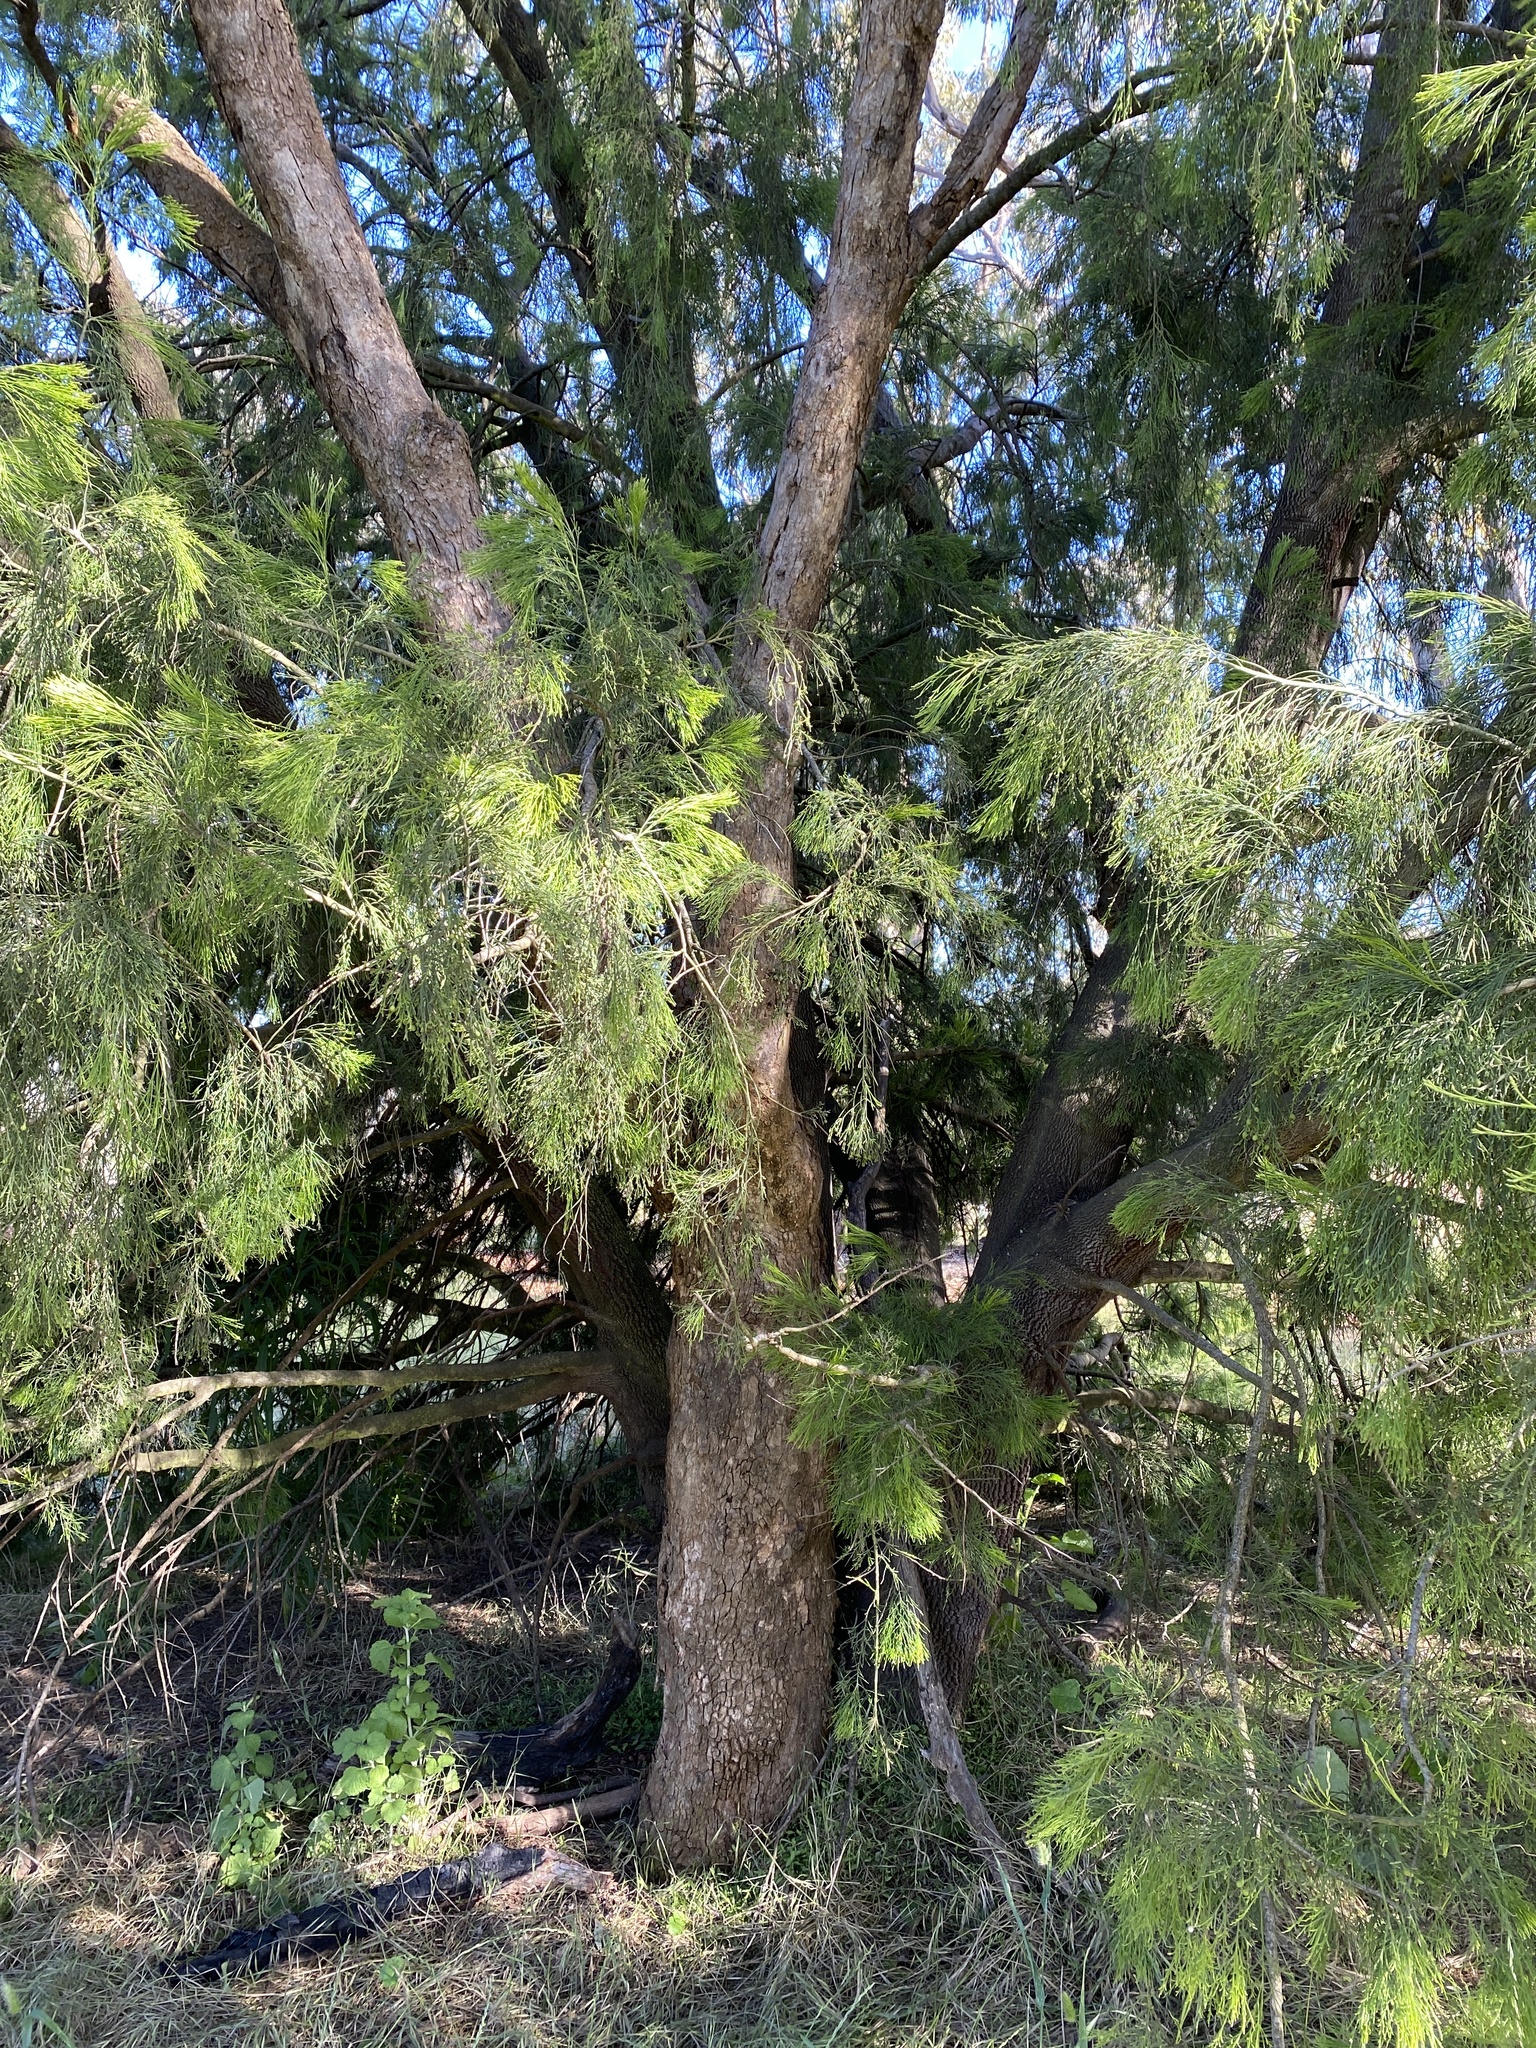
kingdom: Plantae
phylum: Tracheophyta
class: Magnoliopsida
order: Santalales
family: Santalaceae
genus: Exocarpos
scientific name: Exocarpos cupressiformis
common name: Cherry ballart
